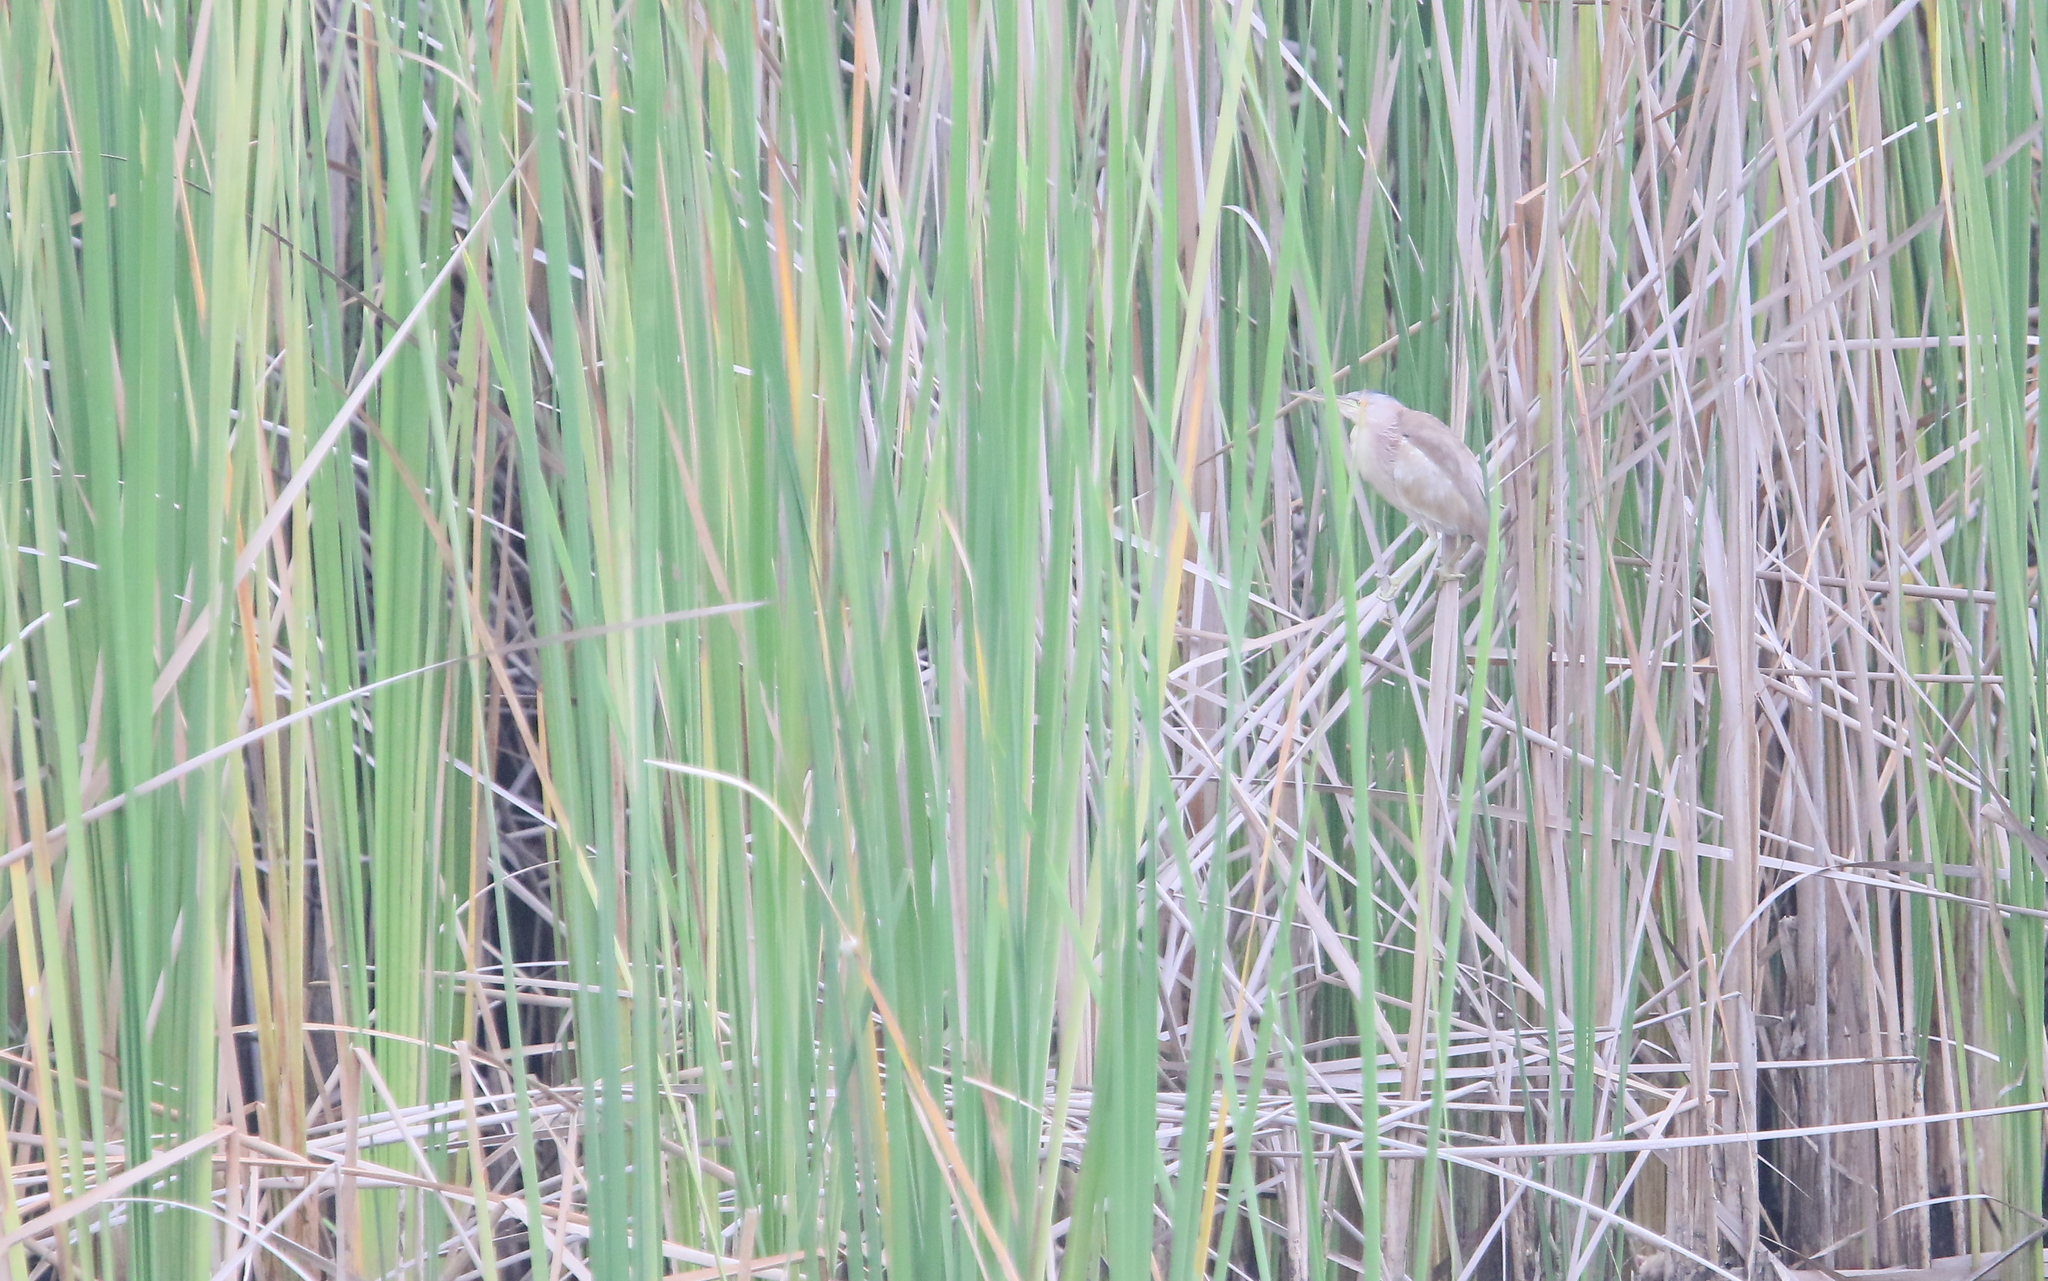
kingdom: Animalia
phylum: Chordata
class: Aves
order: Pelecaniformes
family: Ardeidae
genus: Ixobrychus
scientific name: Ixobrychus sinensis
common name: Yellow bittern
